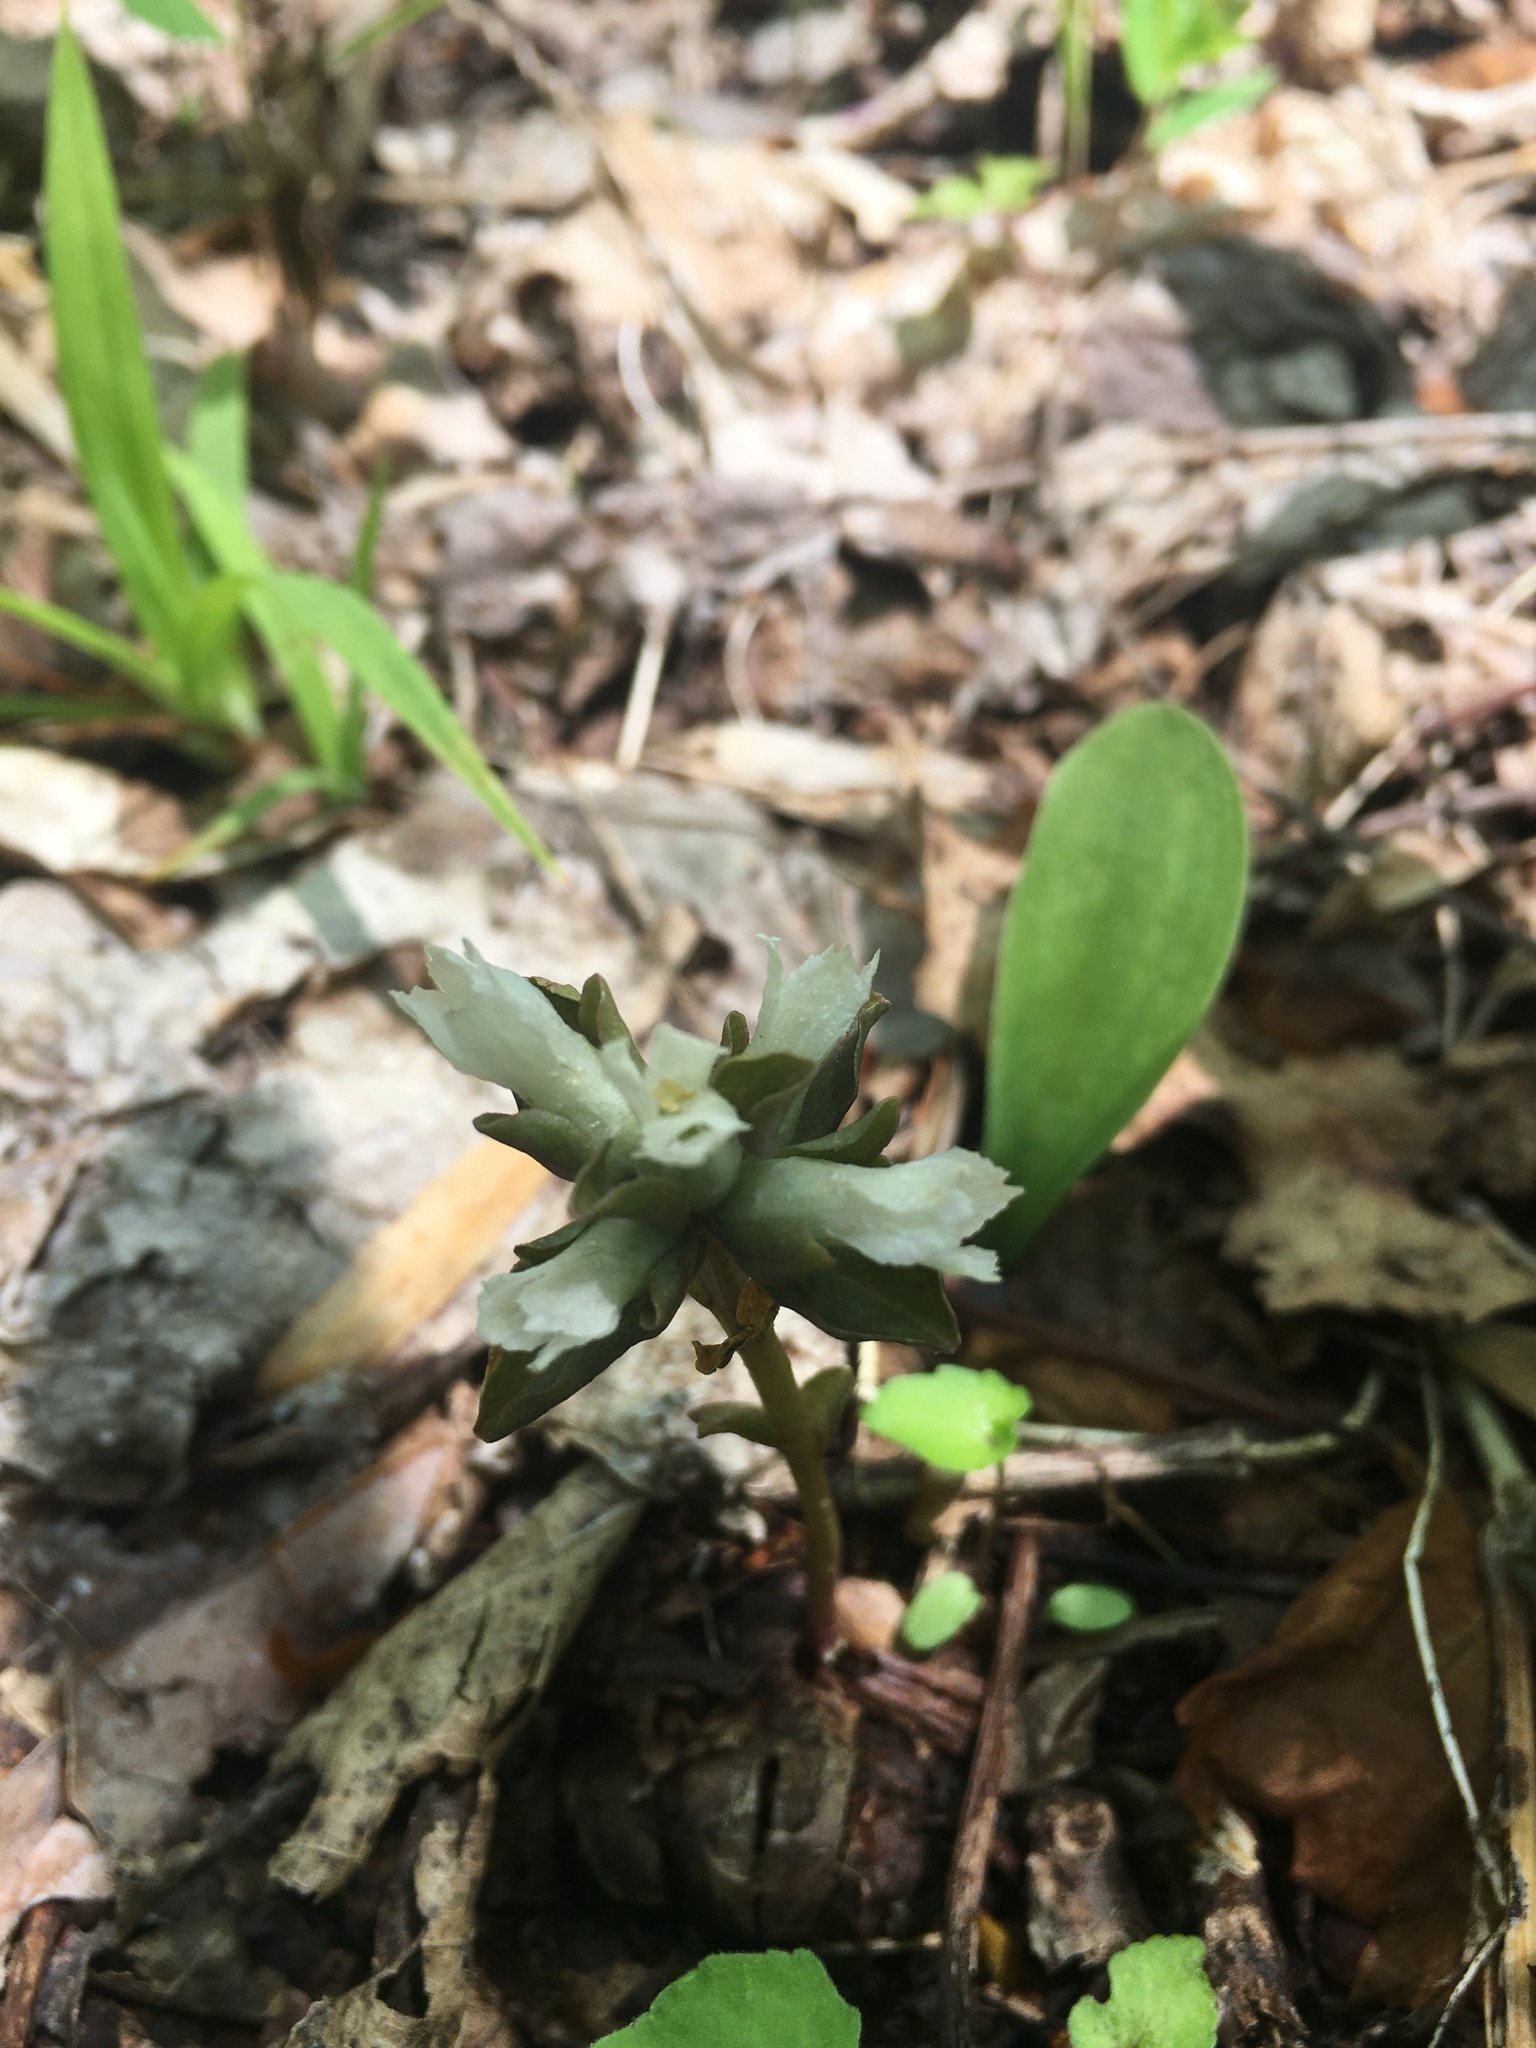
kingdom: Plantae
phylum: Tracheophyta
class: Magnoliopsida
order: Gentianales
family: Gentianaceae
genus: Obolaria
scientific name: Obolaria virginica
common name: Pennywort
